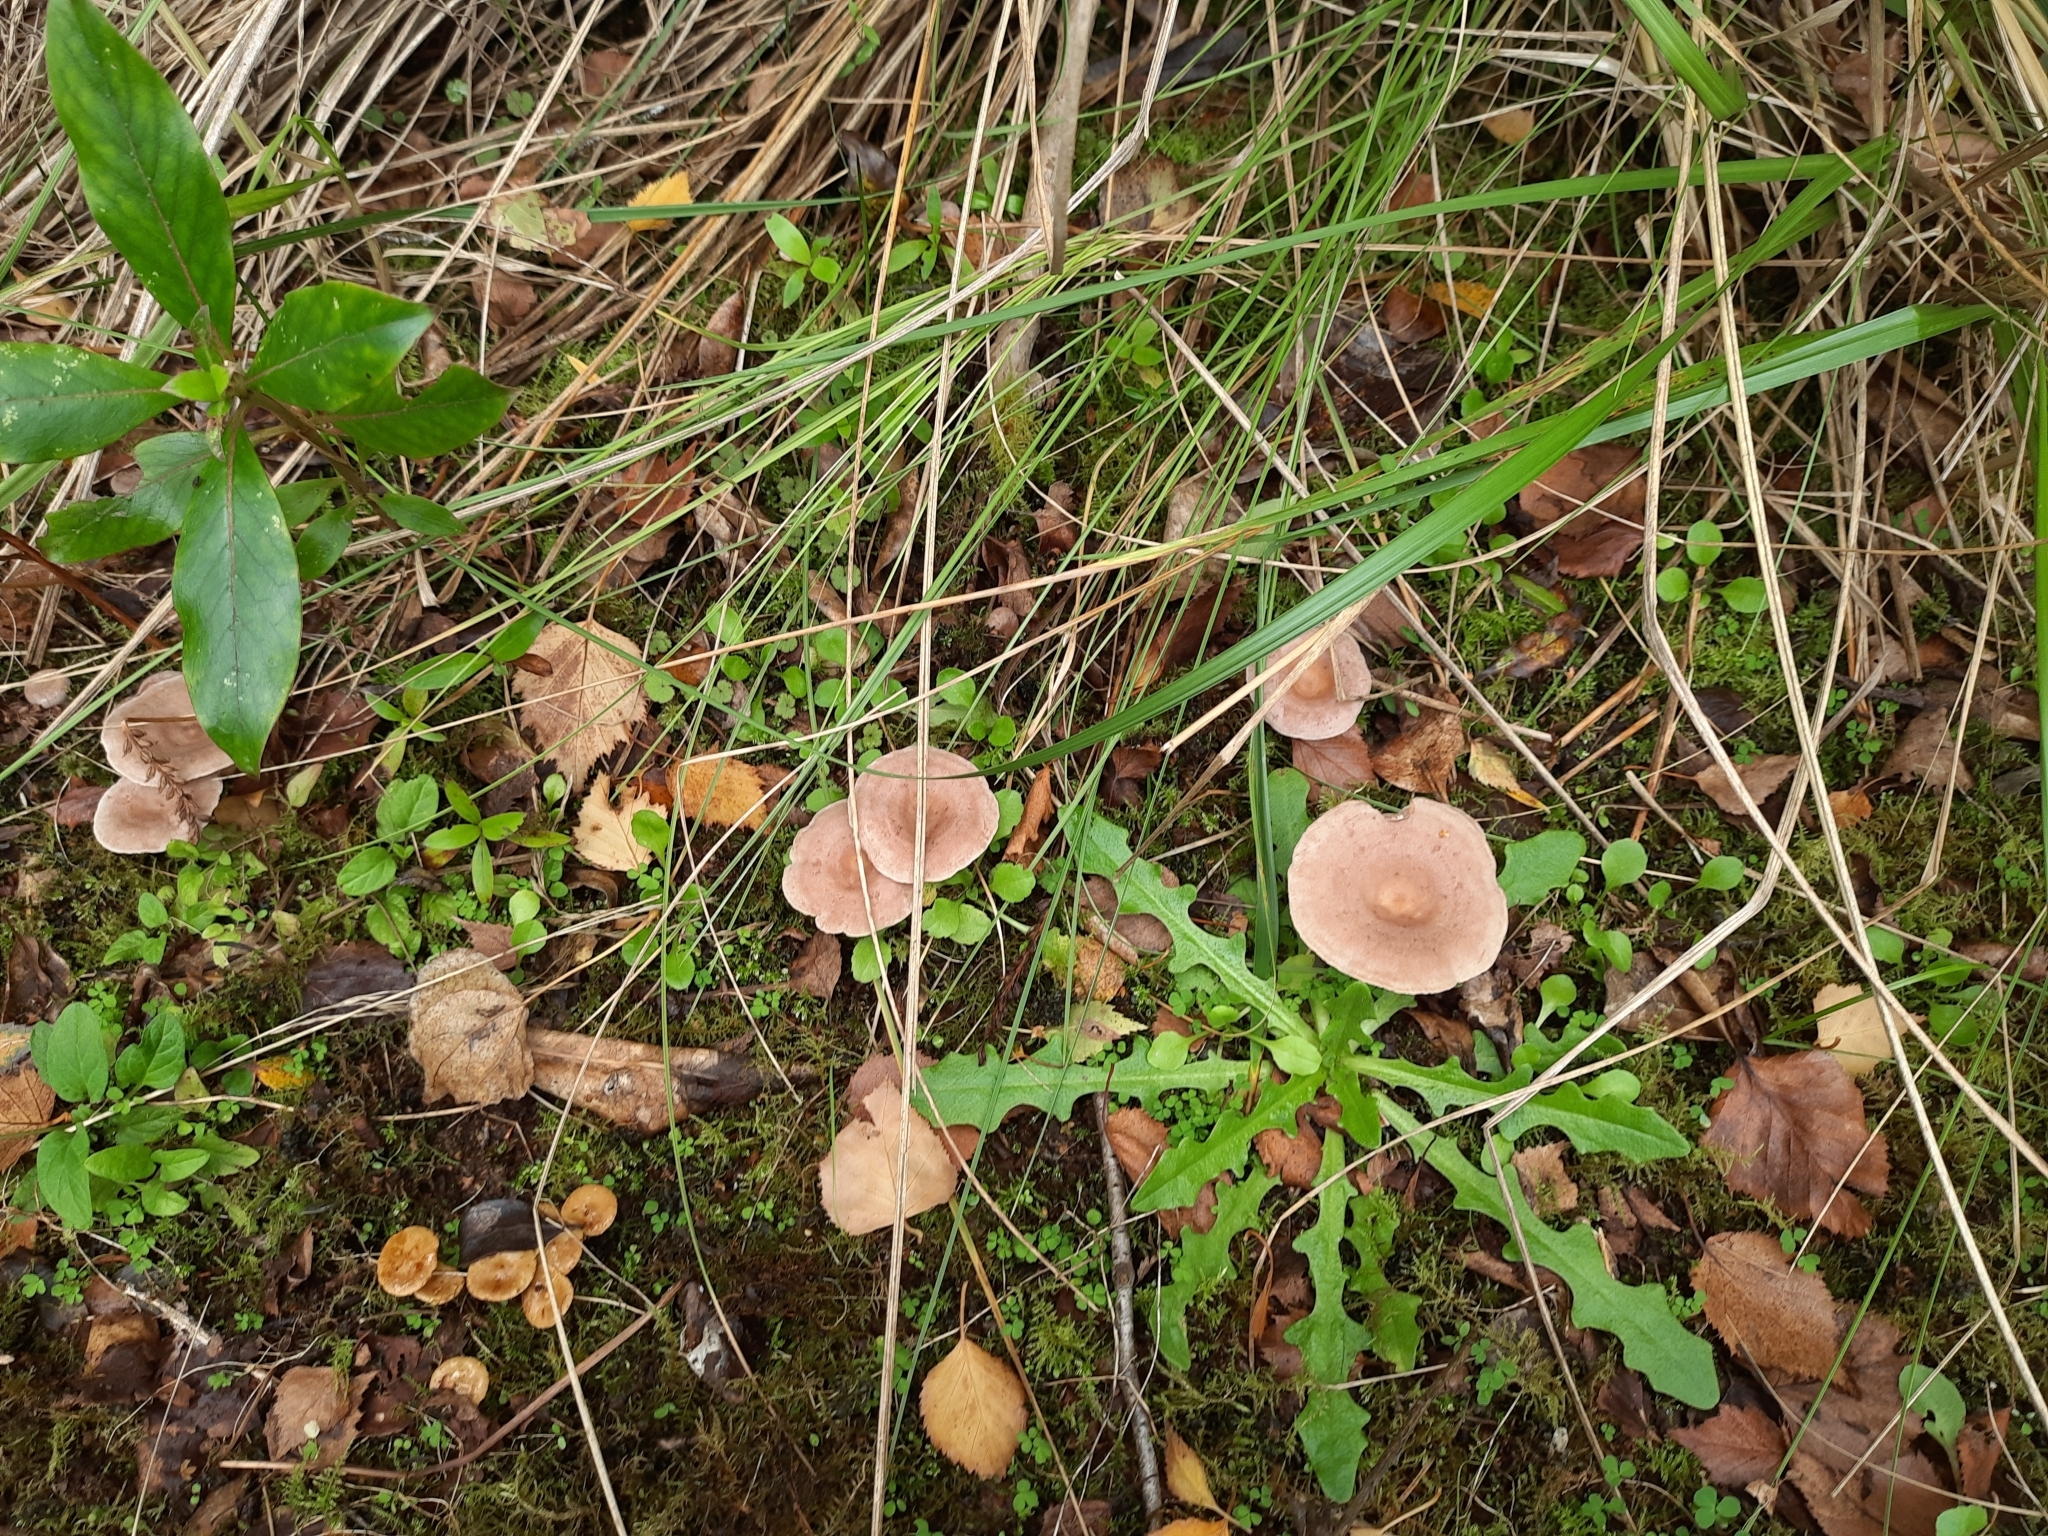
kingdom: Fungi
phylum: Basidiomycota
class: Agaricomycetes
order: Russulales
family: Russulaceae
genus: Lactarius
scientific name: Lactarius glyciosmus
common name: Coconut milkcap
